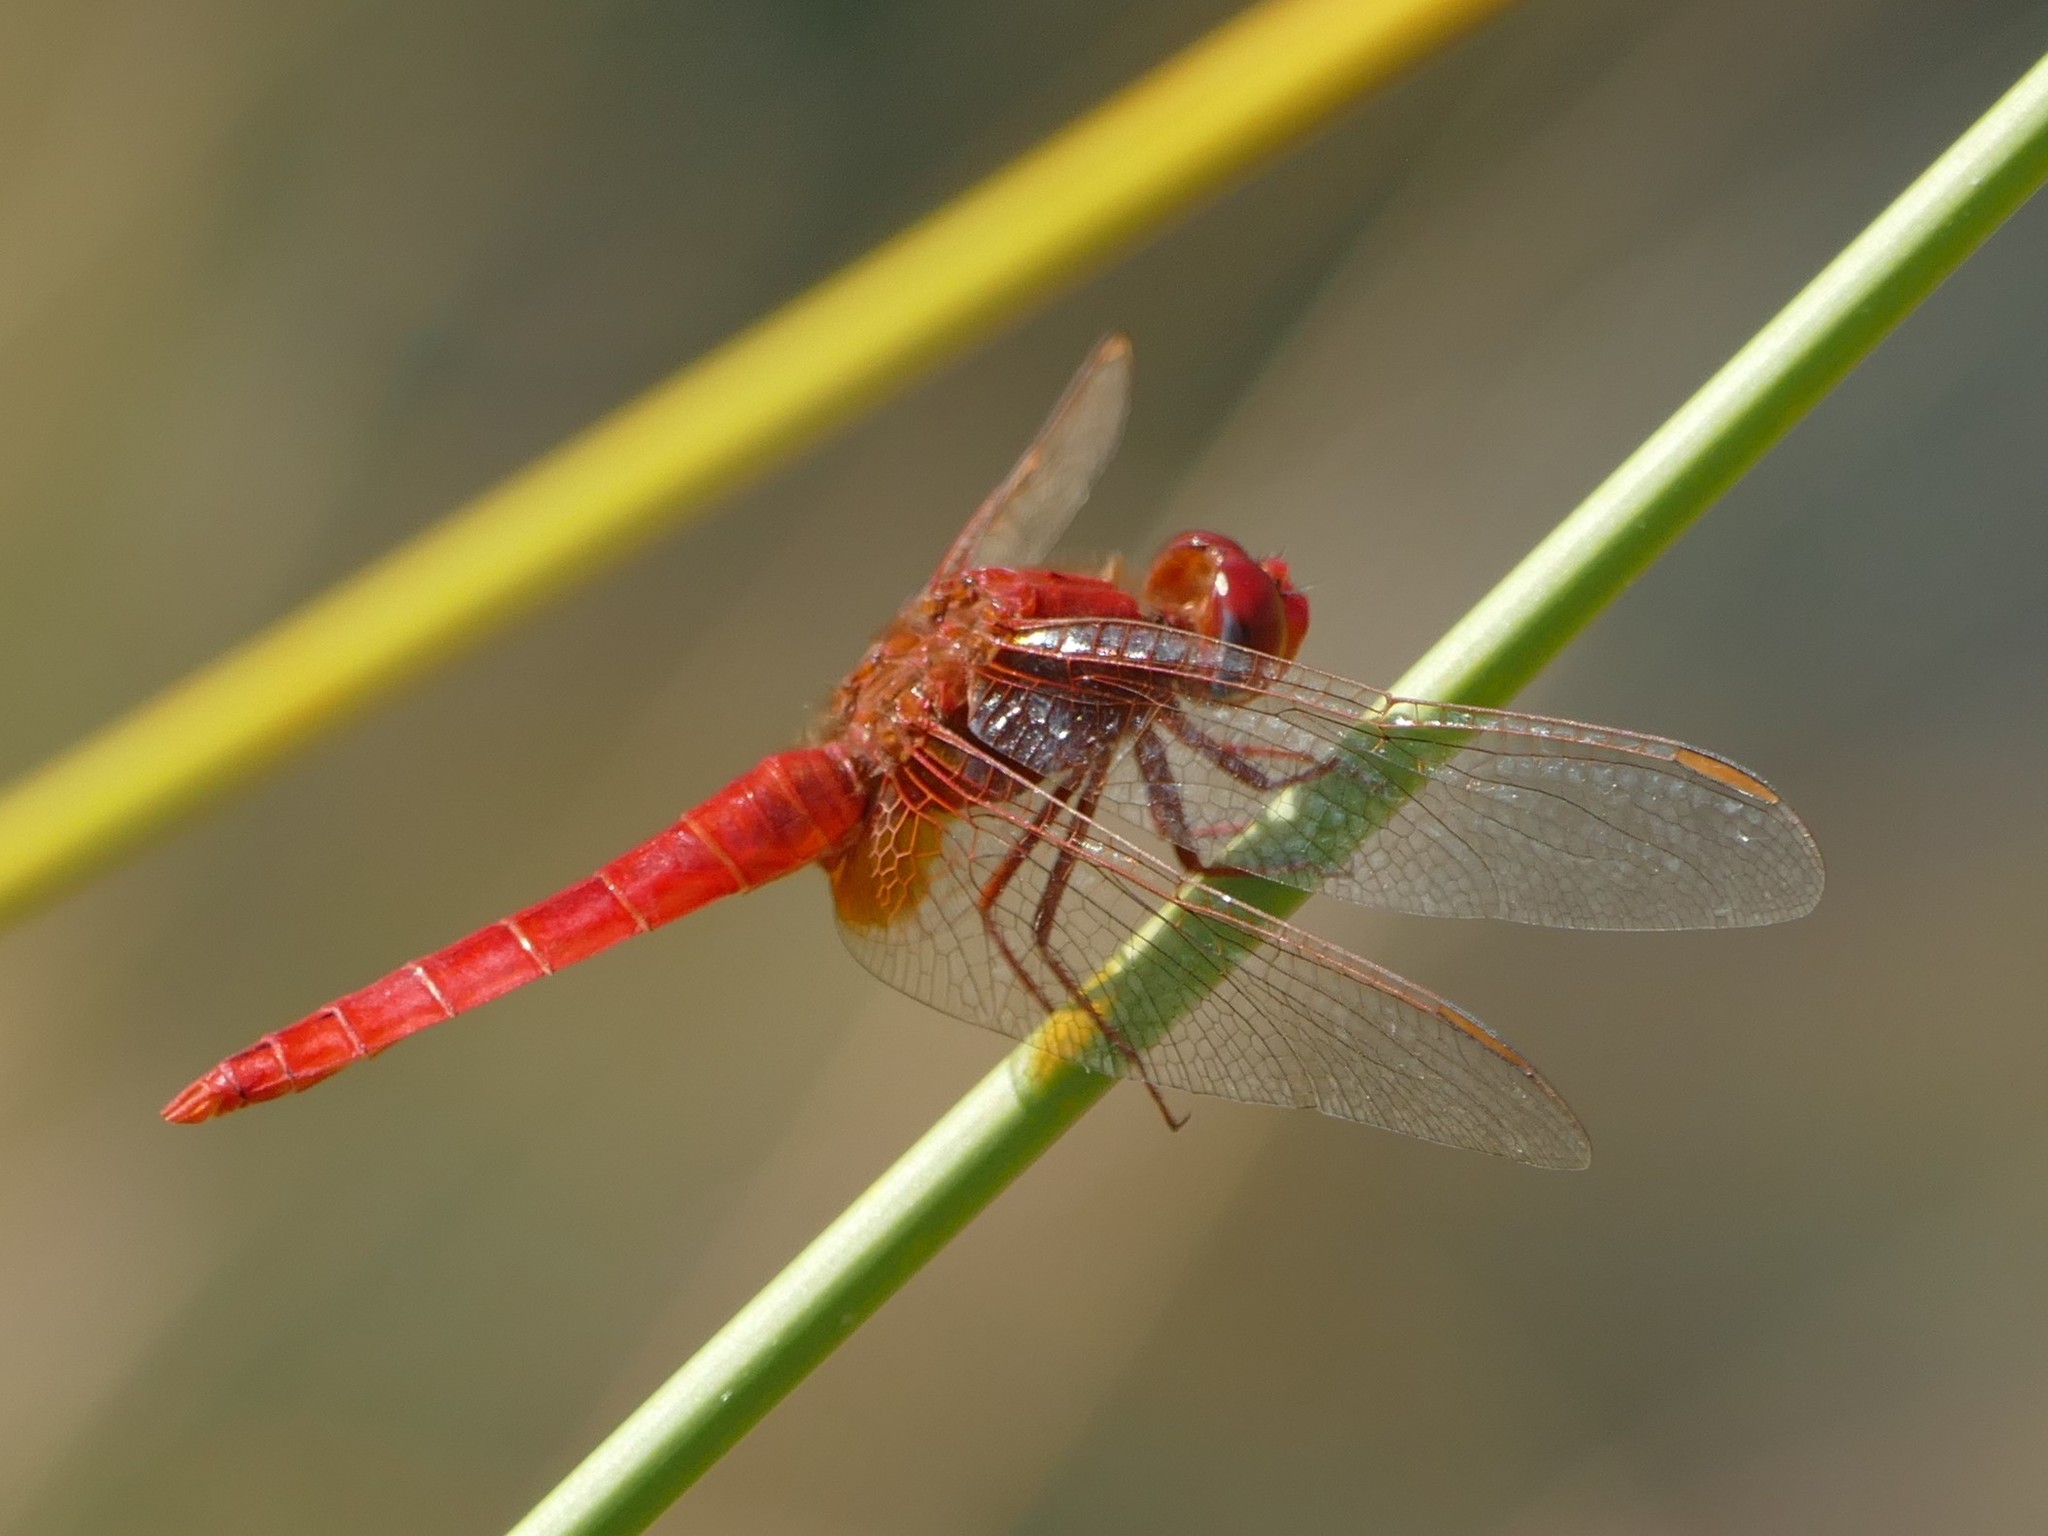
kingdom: Animalia
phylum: Arthropoda
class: Insecta
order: Odonata
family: Libellulidae
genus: Crocothemis
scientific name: Crocothemis erythraea
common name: Scarlet dragonfly
